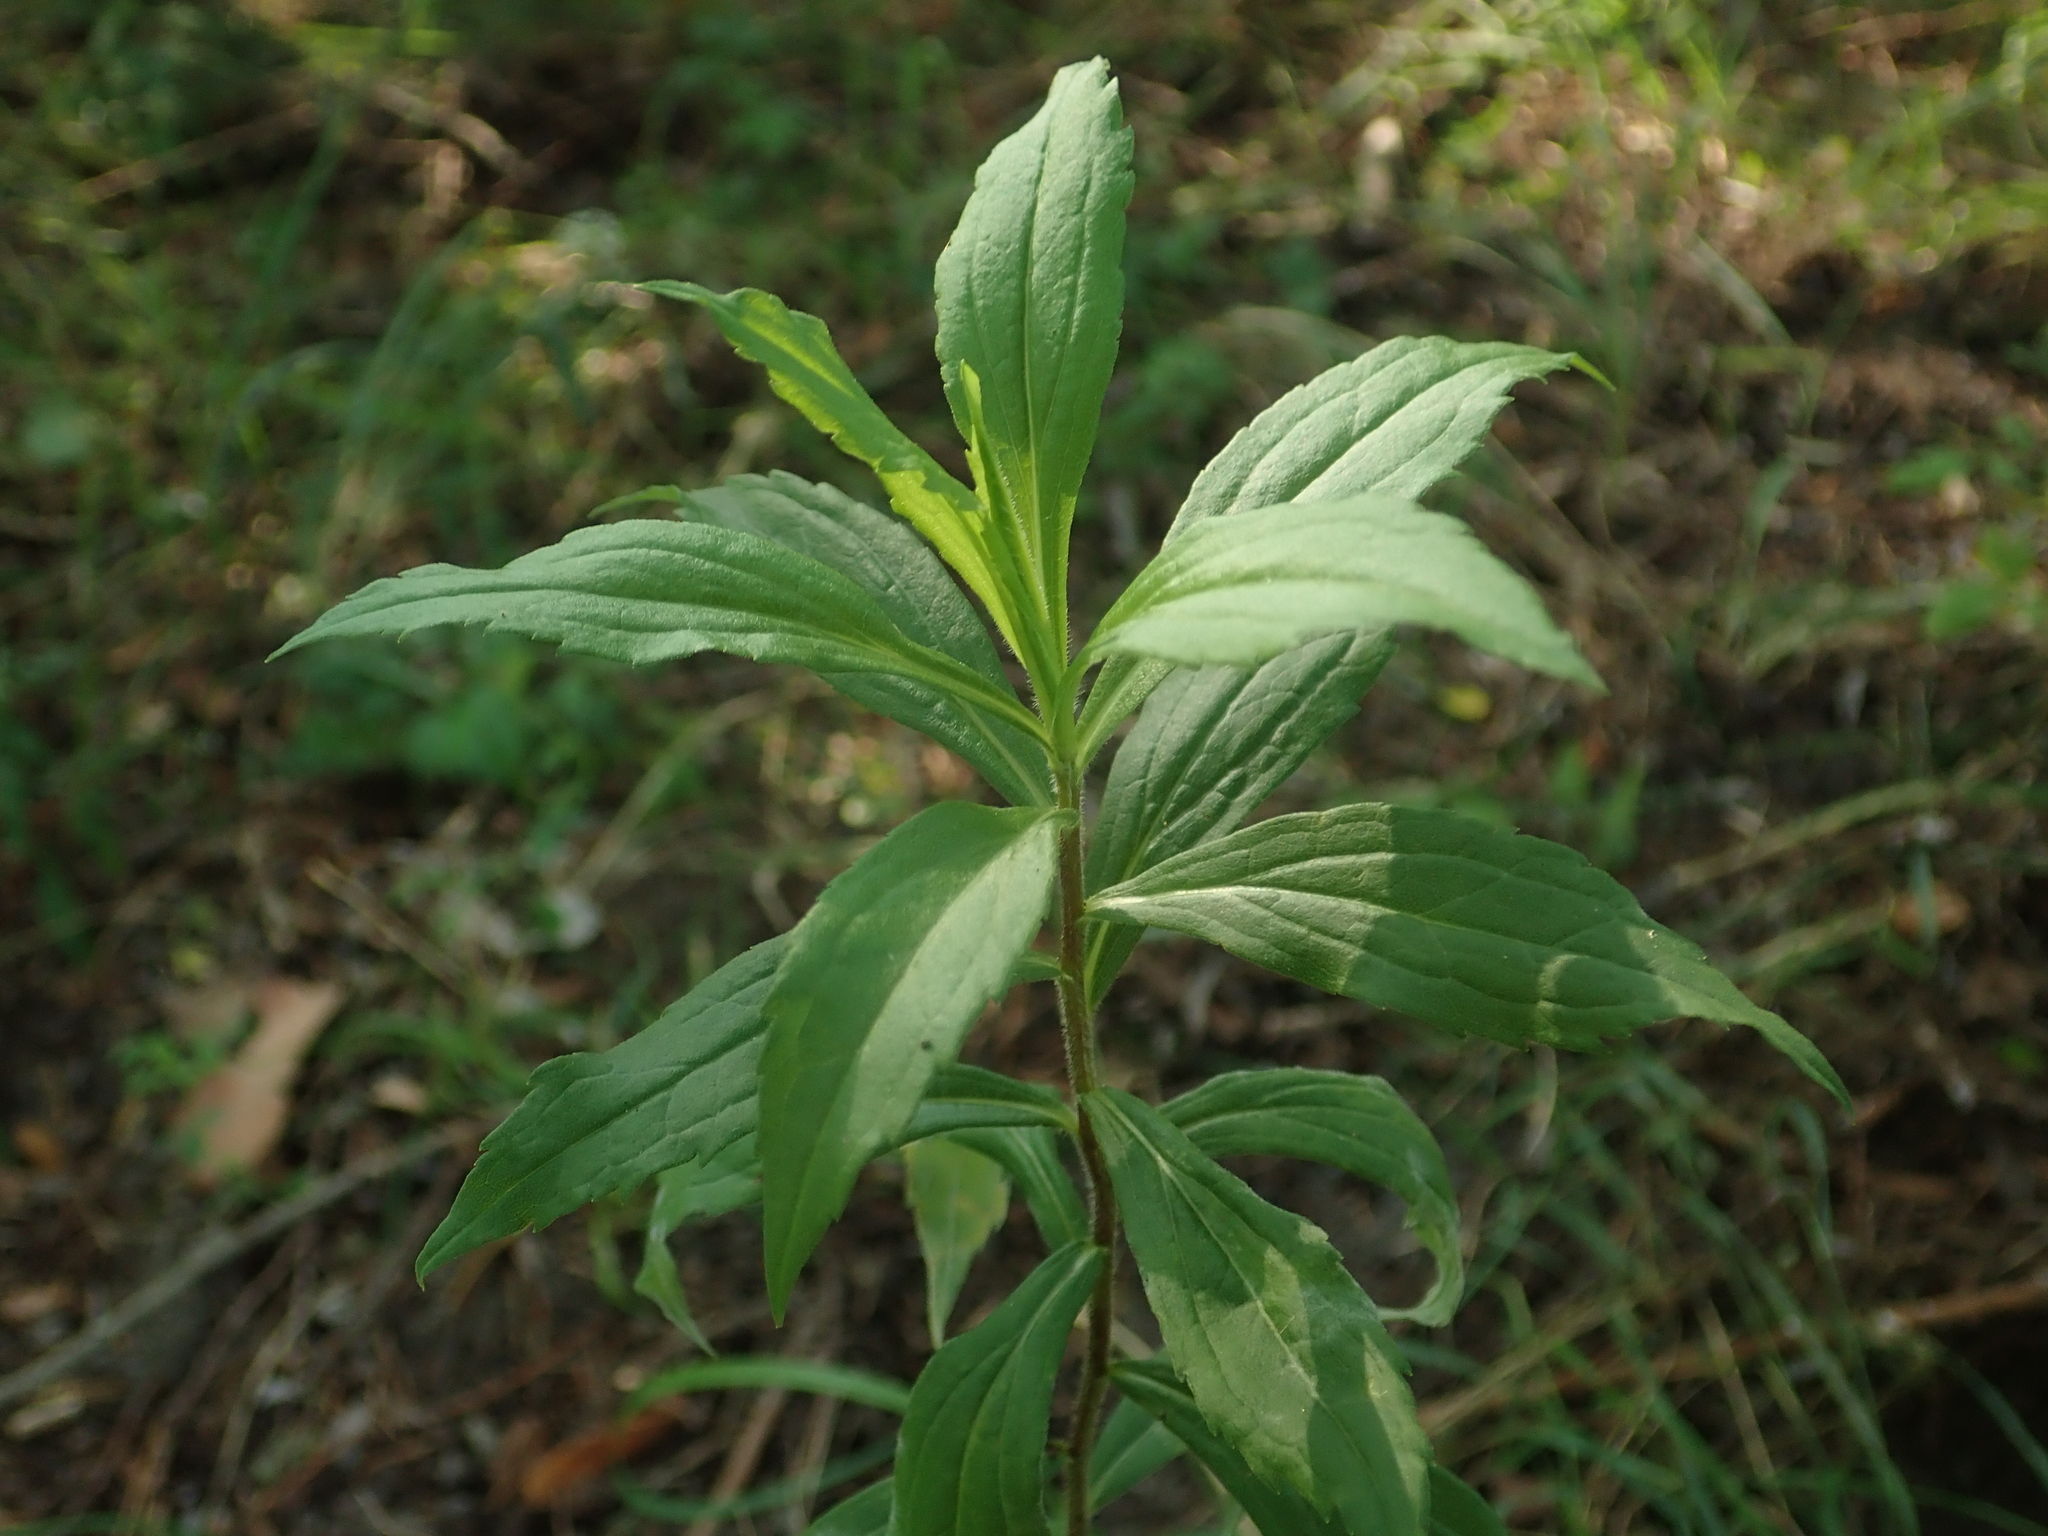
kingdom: Plantae
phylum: Tracheophyta
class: Magnoliopsida
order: Asterales
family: Asteraceae
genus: Solidago
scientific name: Solidago canadensis
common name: Canada goldenrod
